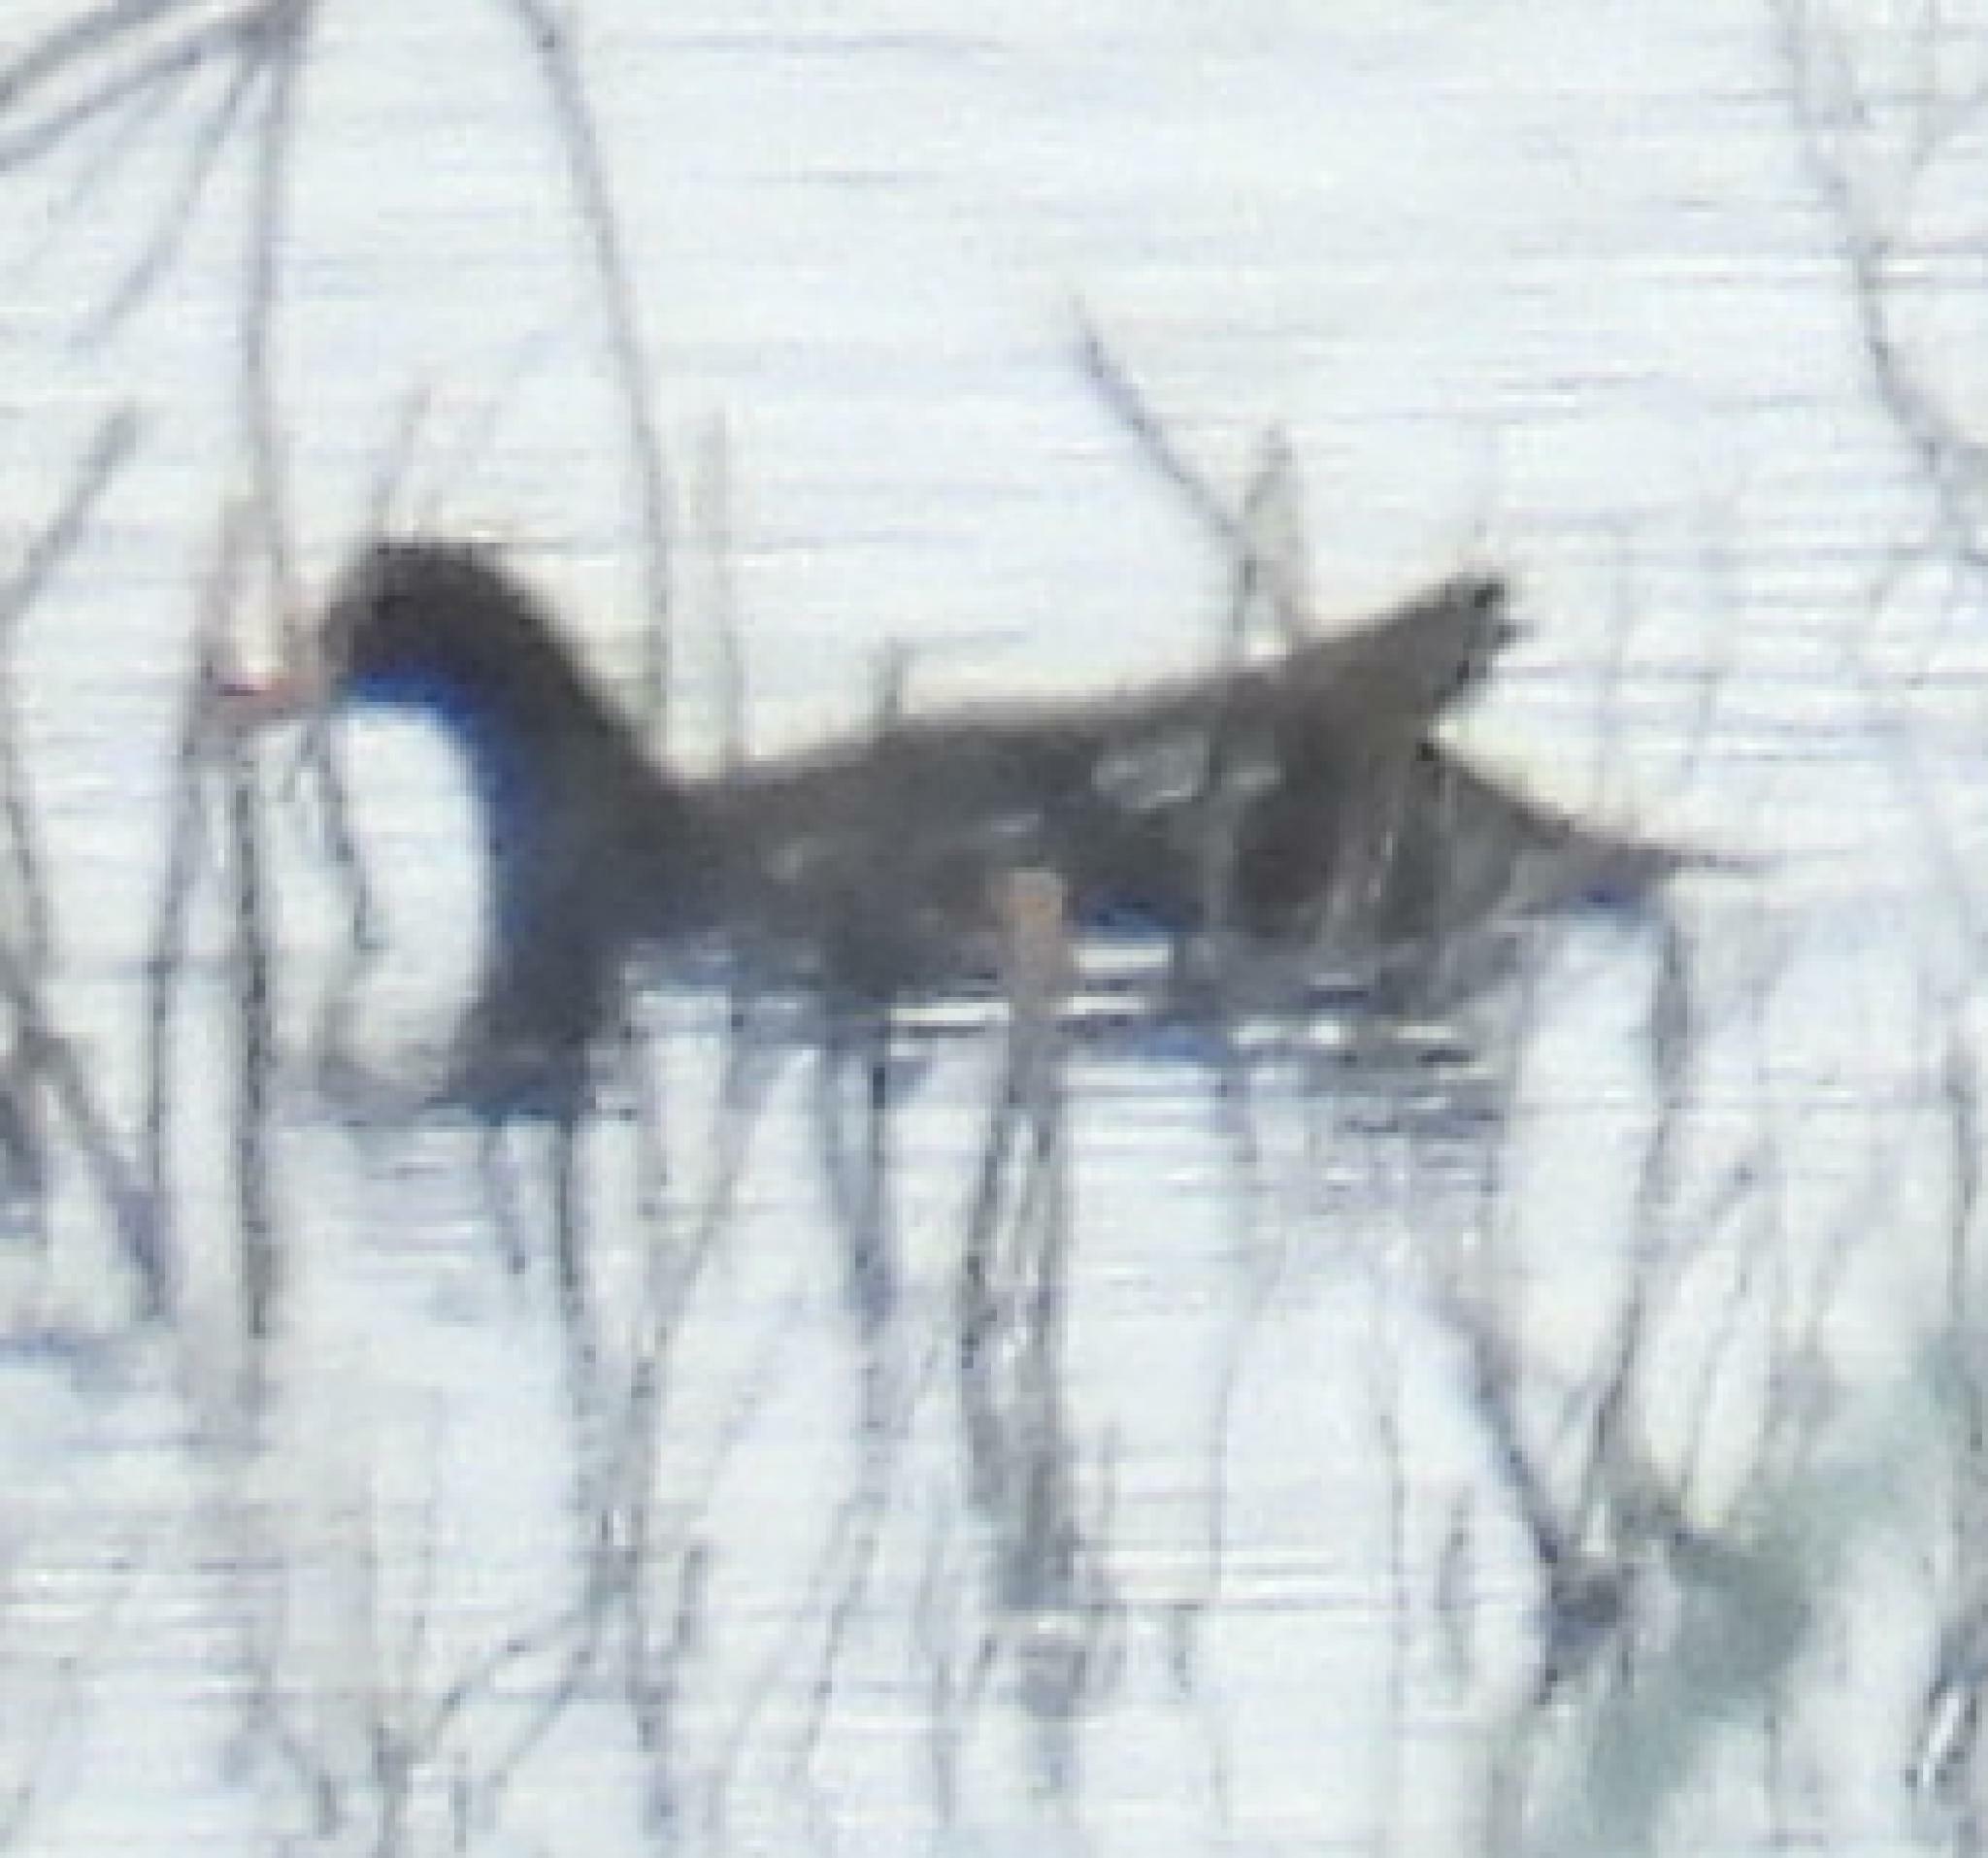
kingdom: Animalia
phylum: Chordata
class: Aves
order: Gruiformes
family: Rallidae
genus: Gallinula
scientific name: Gallinula chloropus
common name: Common moorhen
